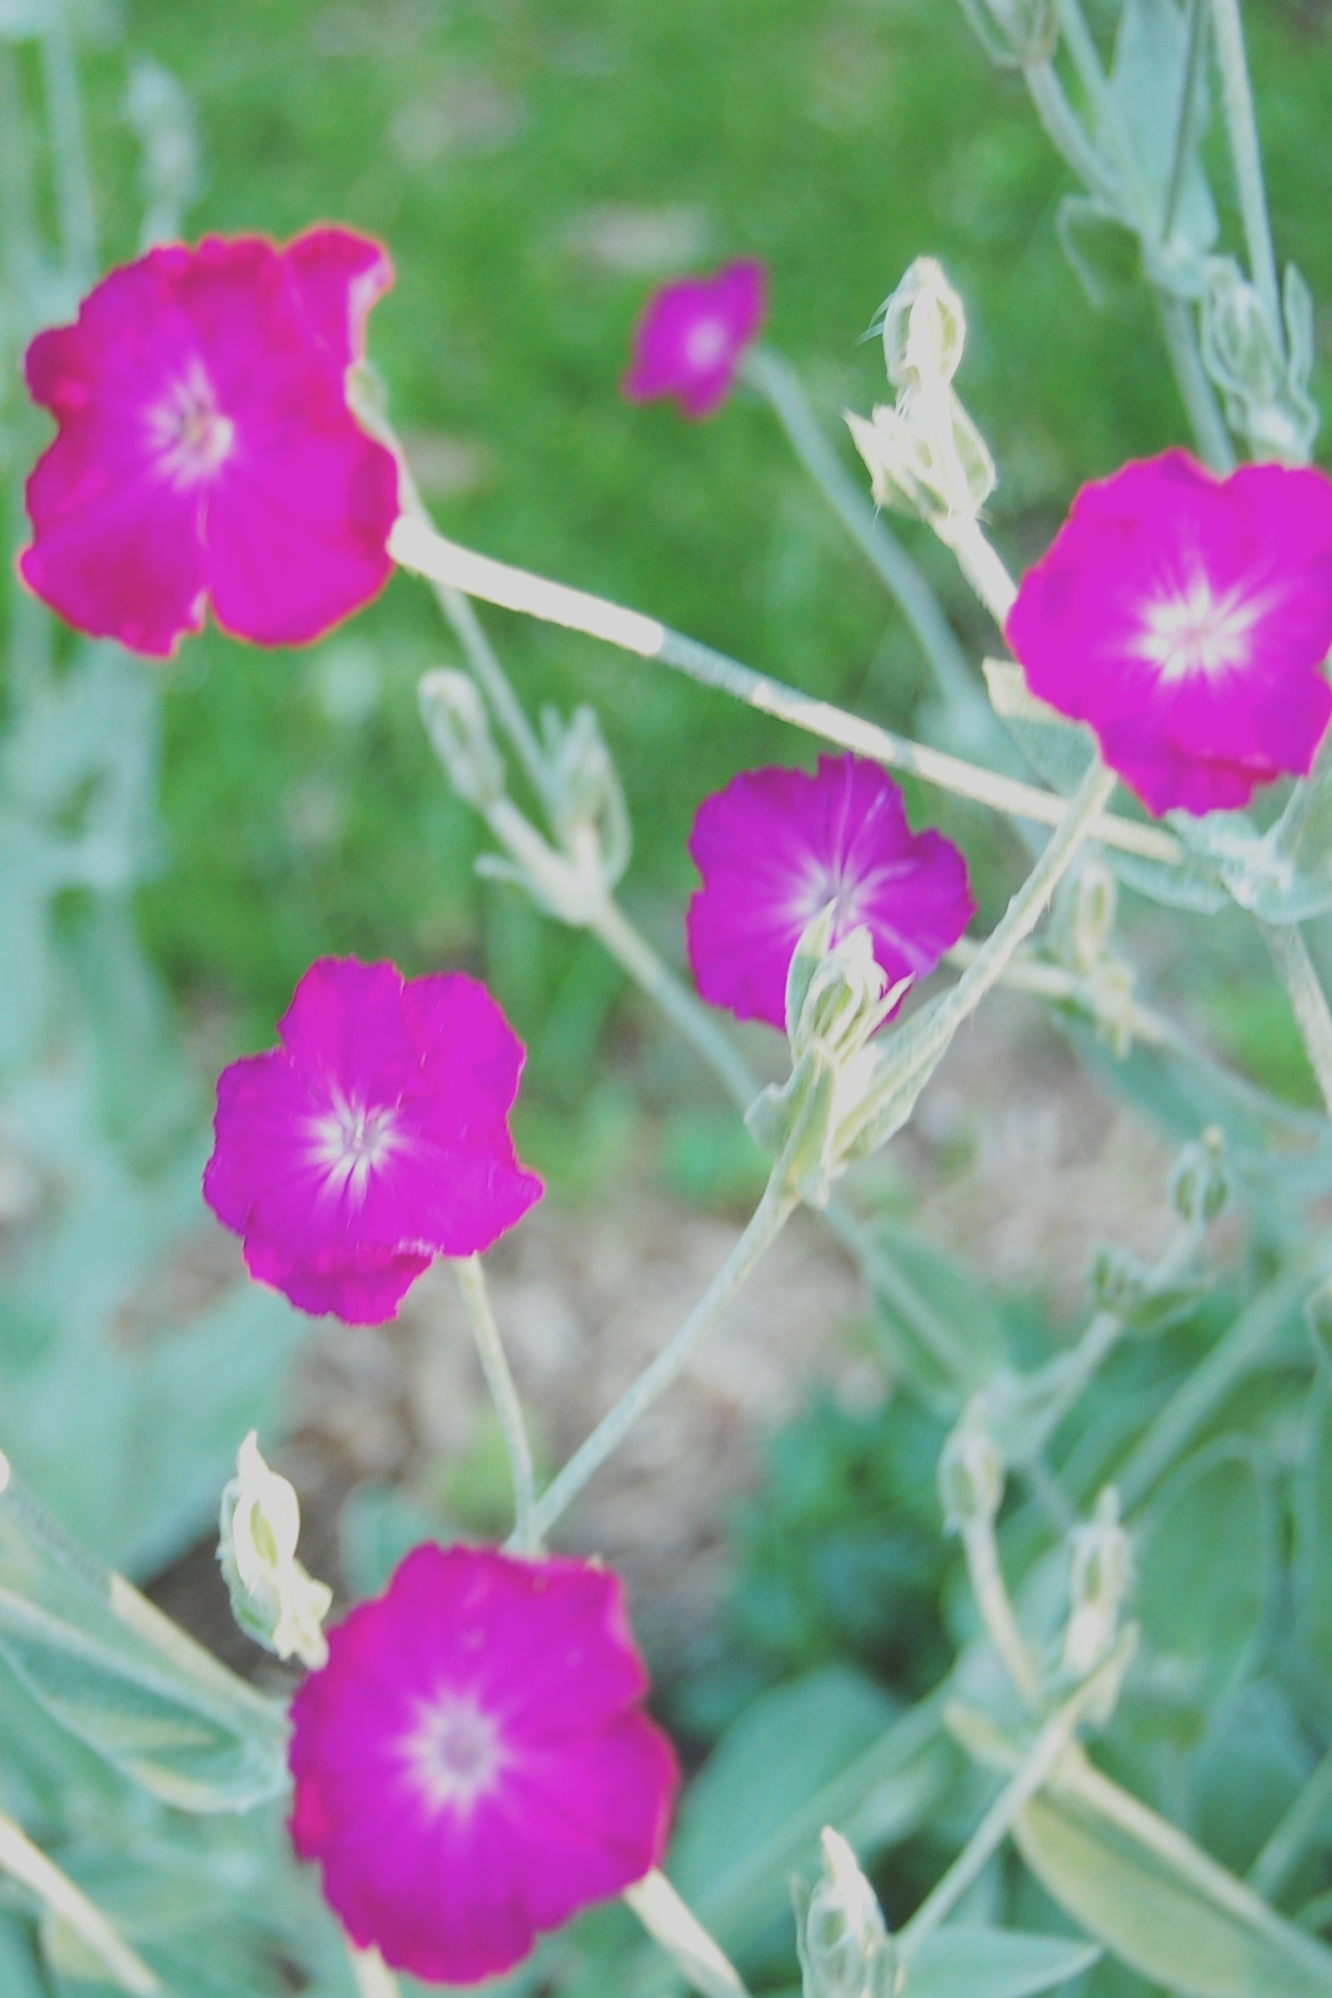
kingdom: Plantae
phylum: Tracheophyta
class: Magnoliopsida
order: Caryophyllales
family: Caryophyllaceae
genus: Silene
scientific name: Silene coronaria
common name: Rose campion
